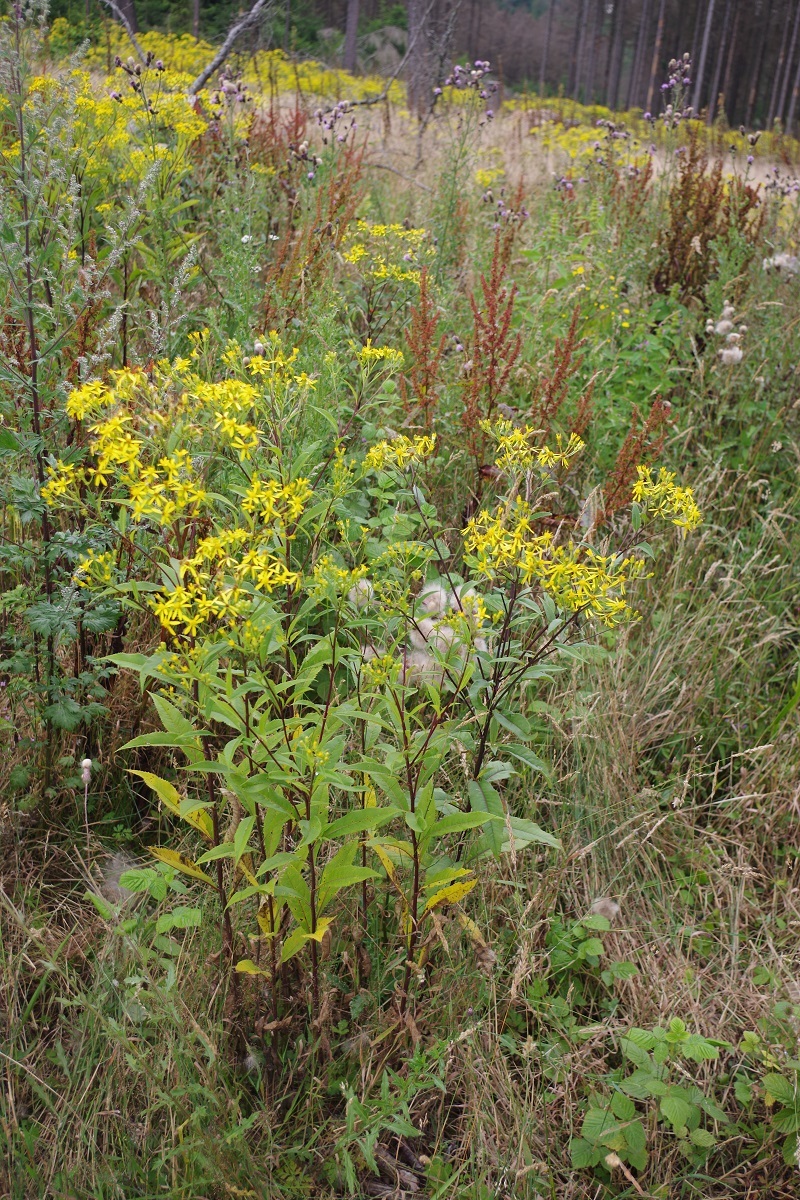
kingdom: Plantae
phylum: Tracheophyta
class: Magnoliopsida
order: Asterales
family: Asteraceae
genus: Senecio
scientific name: Senecio ovatus
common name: Wood ragwort
